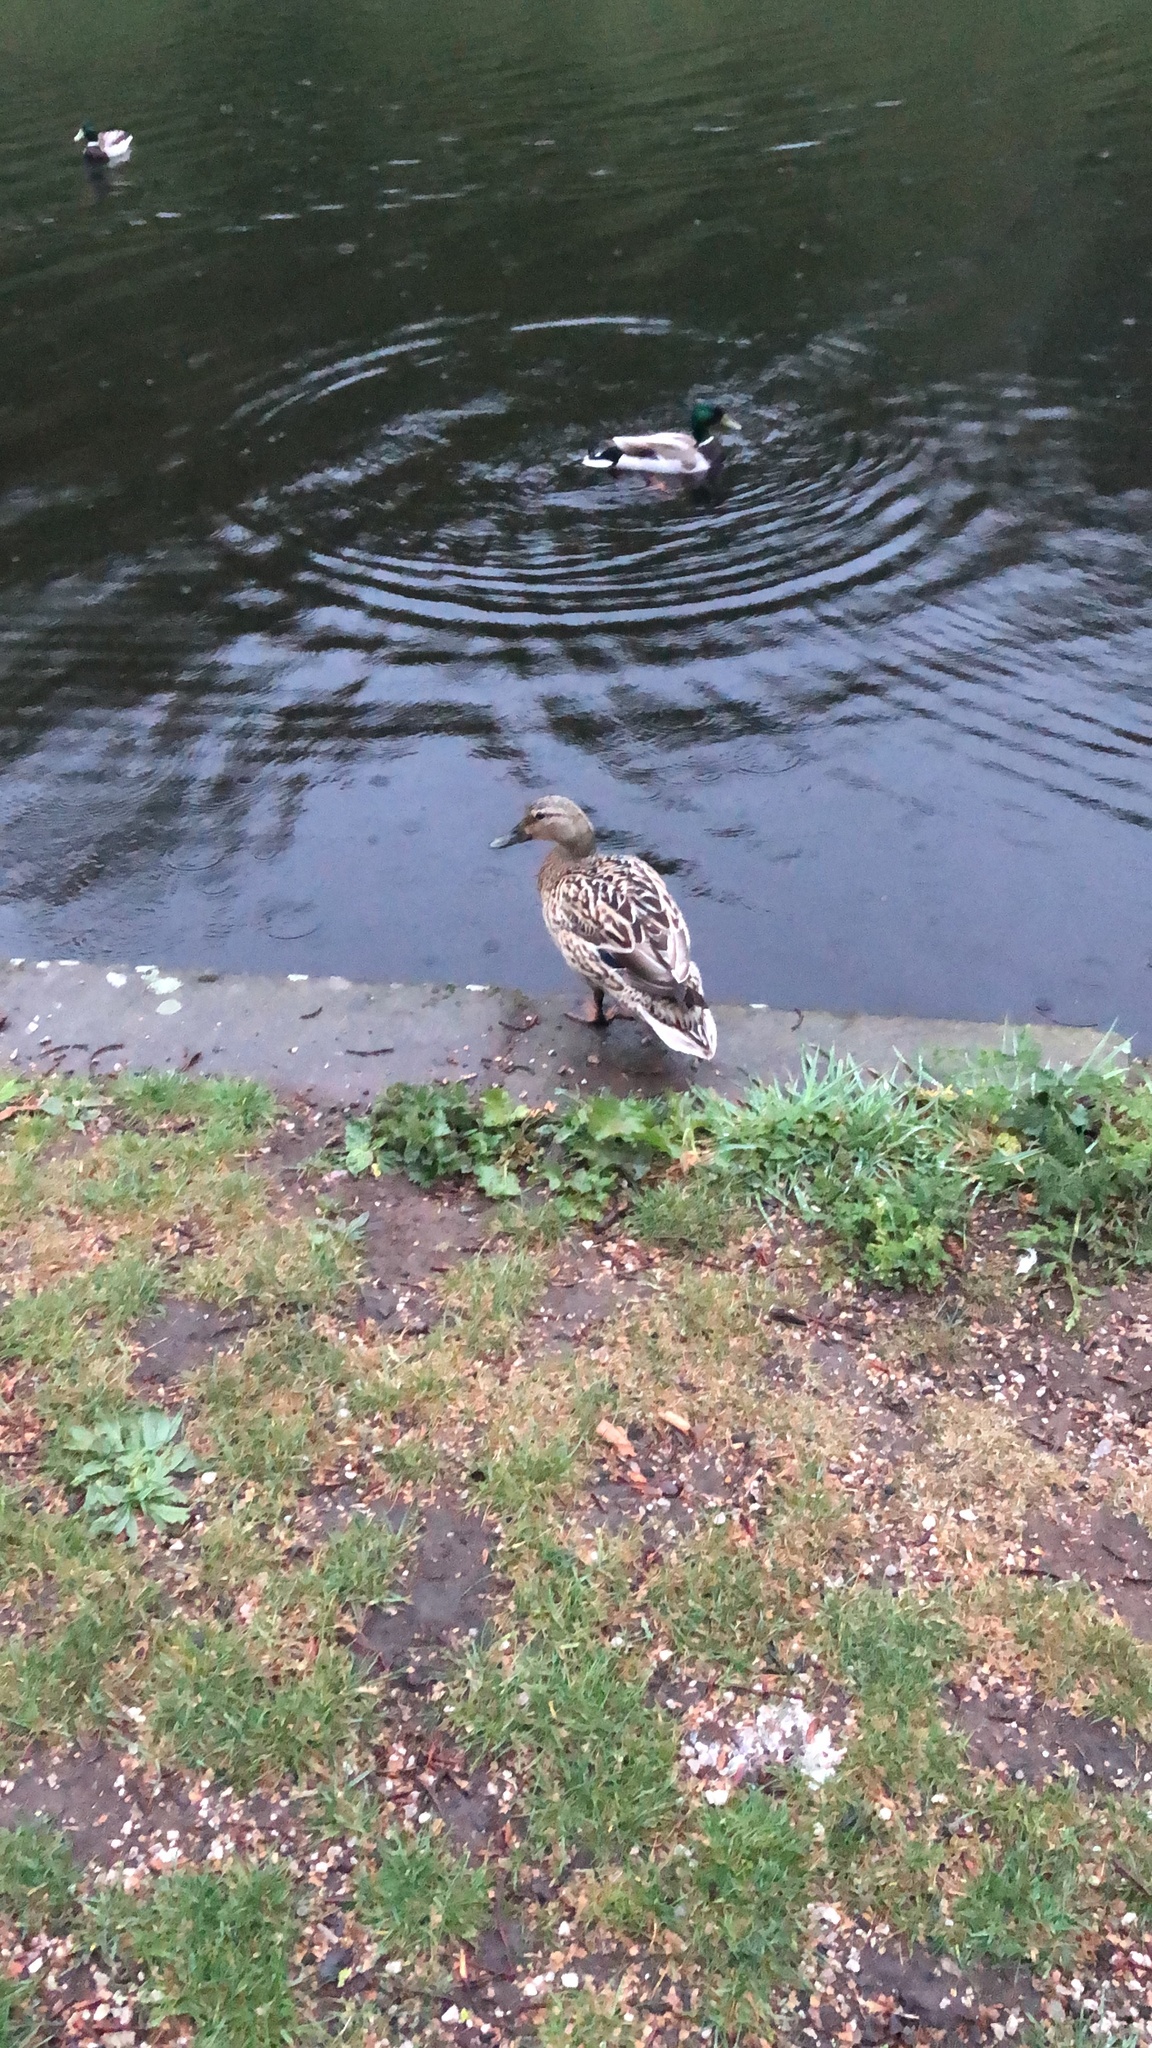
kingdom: Animalia
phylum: Chordata
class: Aves
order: Anseriformes
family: Anatidae
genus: Anas
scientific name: Anas platyrhynchos
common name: Mallard
